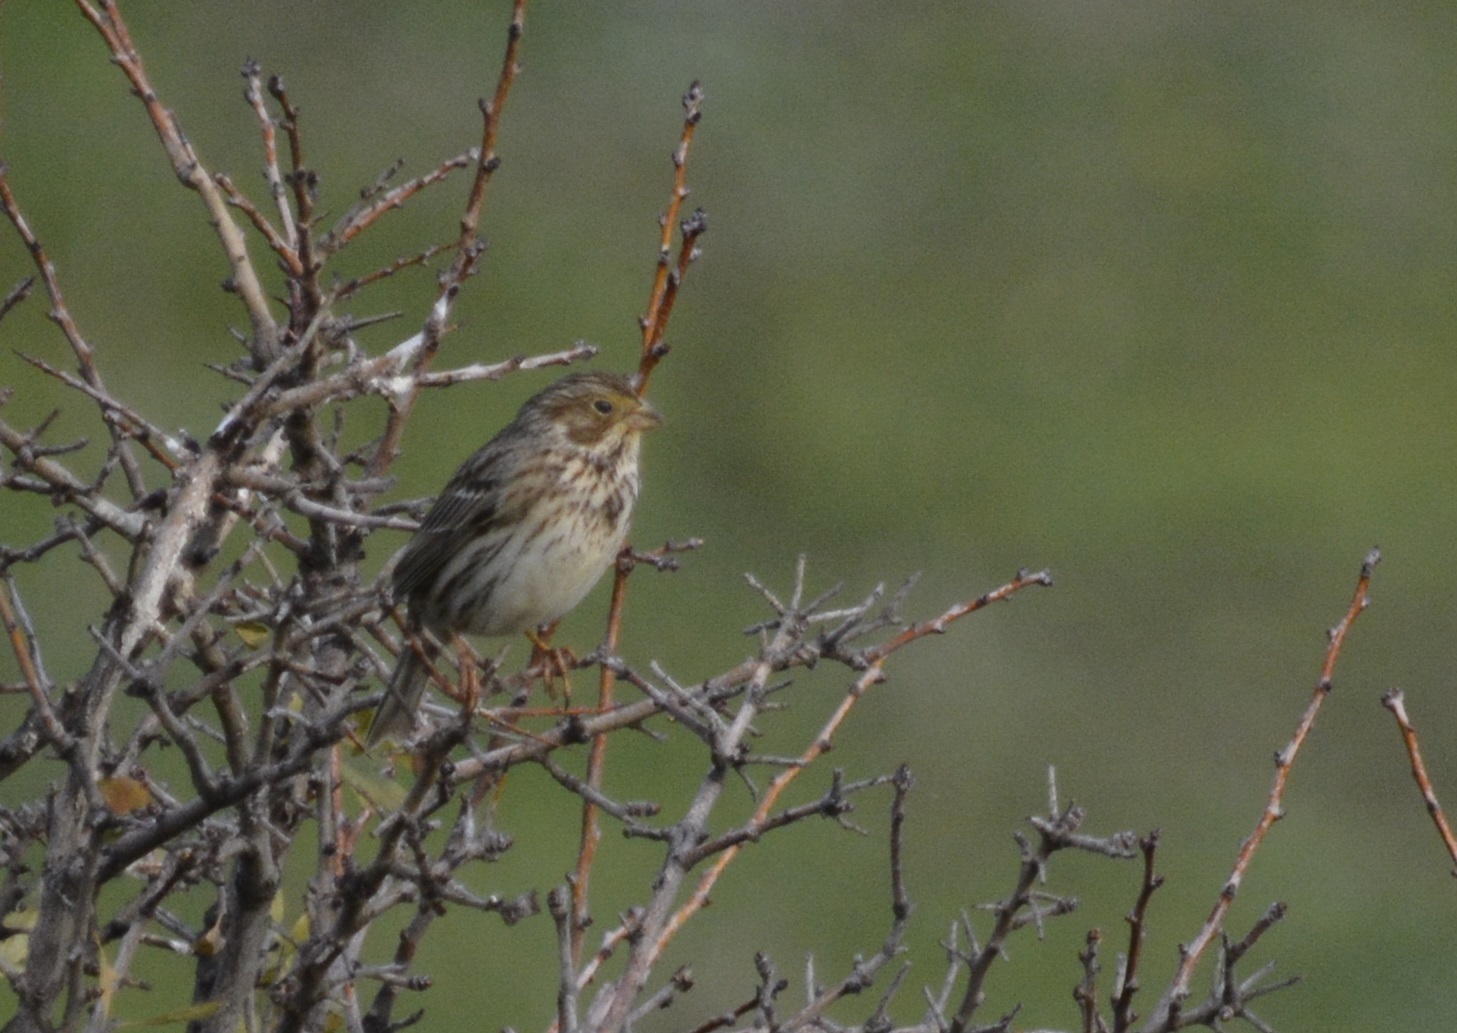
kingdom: Animalia
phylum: Chordata
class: Aves
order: Passeriformes
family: Emberizidae
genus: Emberiza
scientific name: Emberiza calandra
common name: Corn bunting
